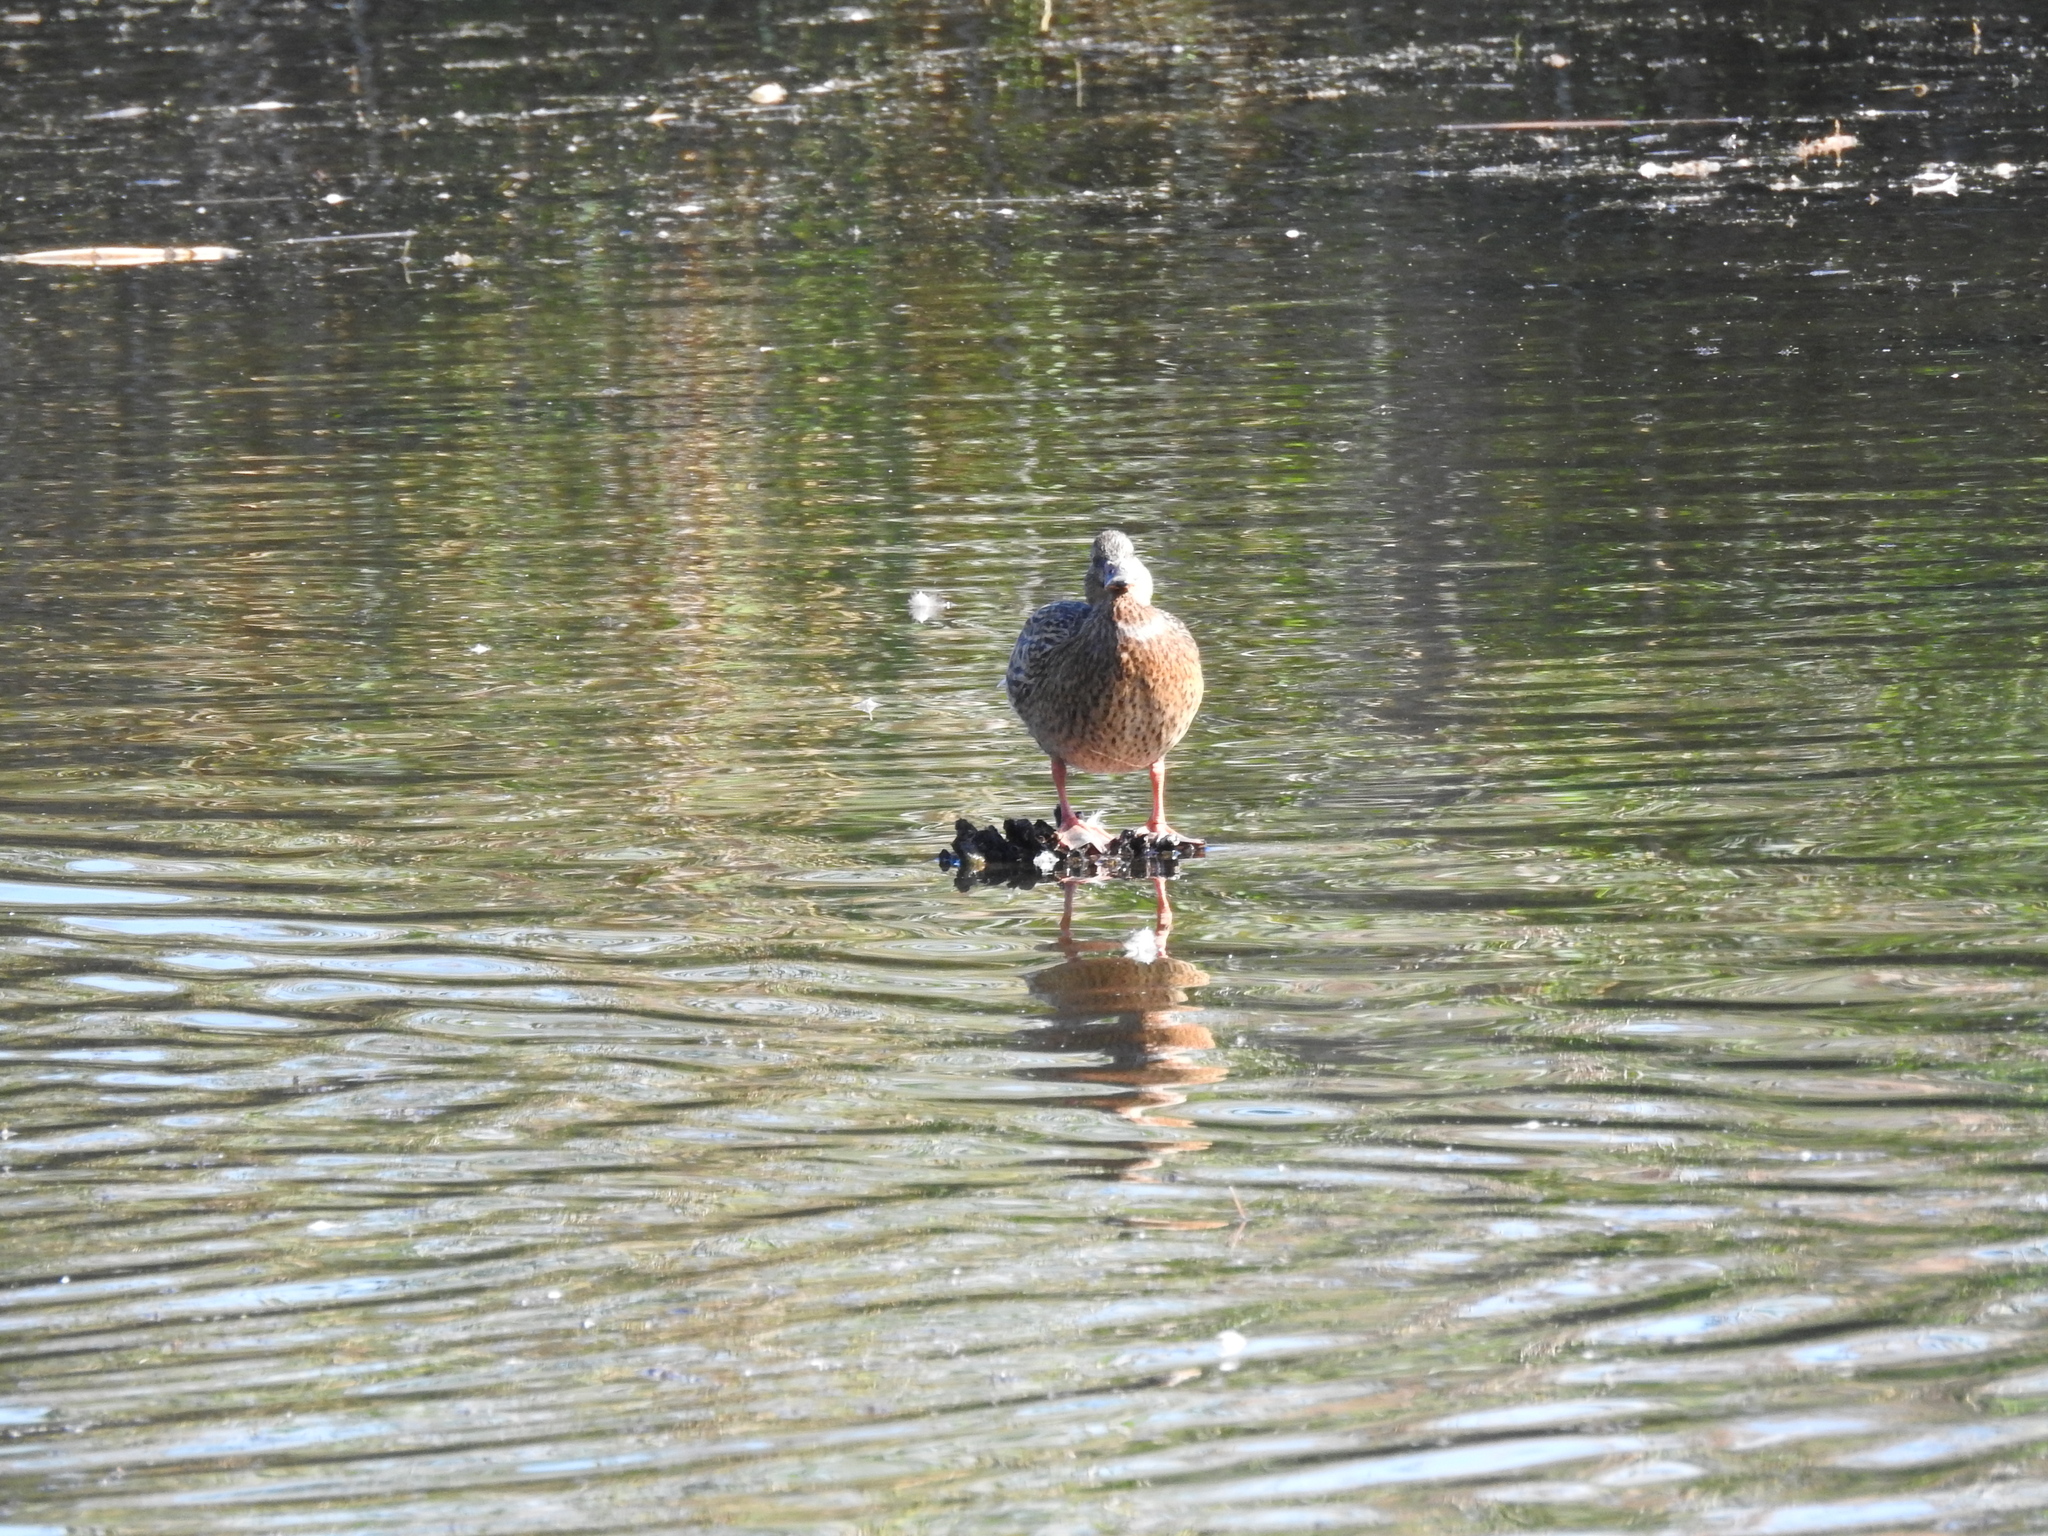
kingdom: Animalia
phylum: Chordata
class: Aves
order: Anseriformes
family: Anatidae
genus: Anas
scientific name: Anas platyrhynchos
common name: Mallard
